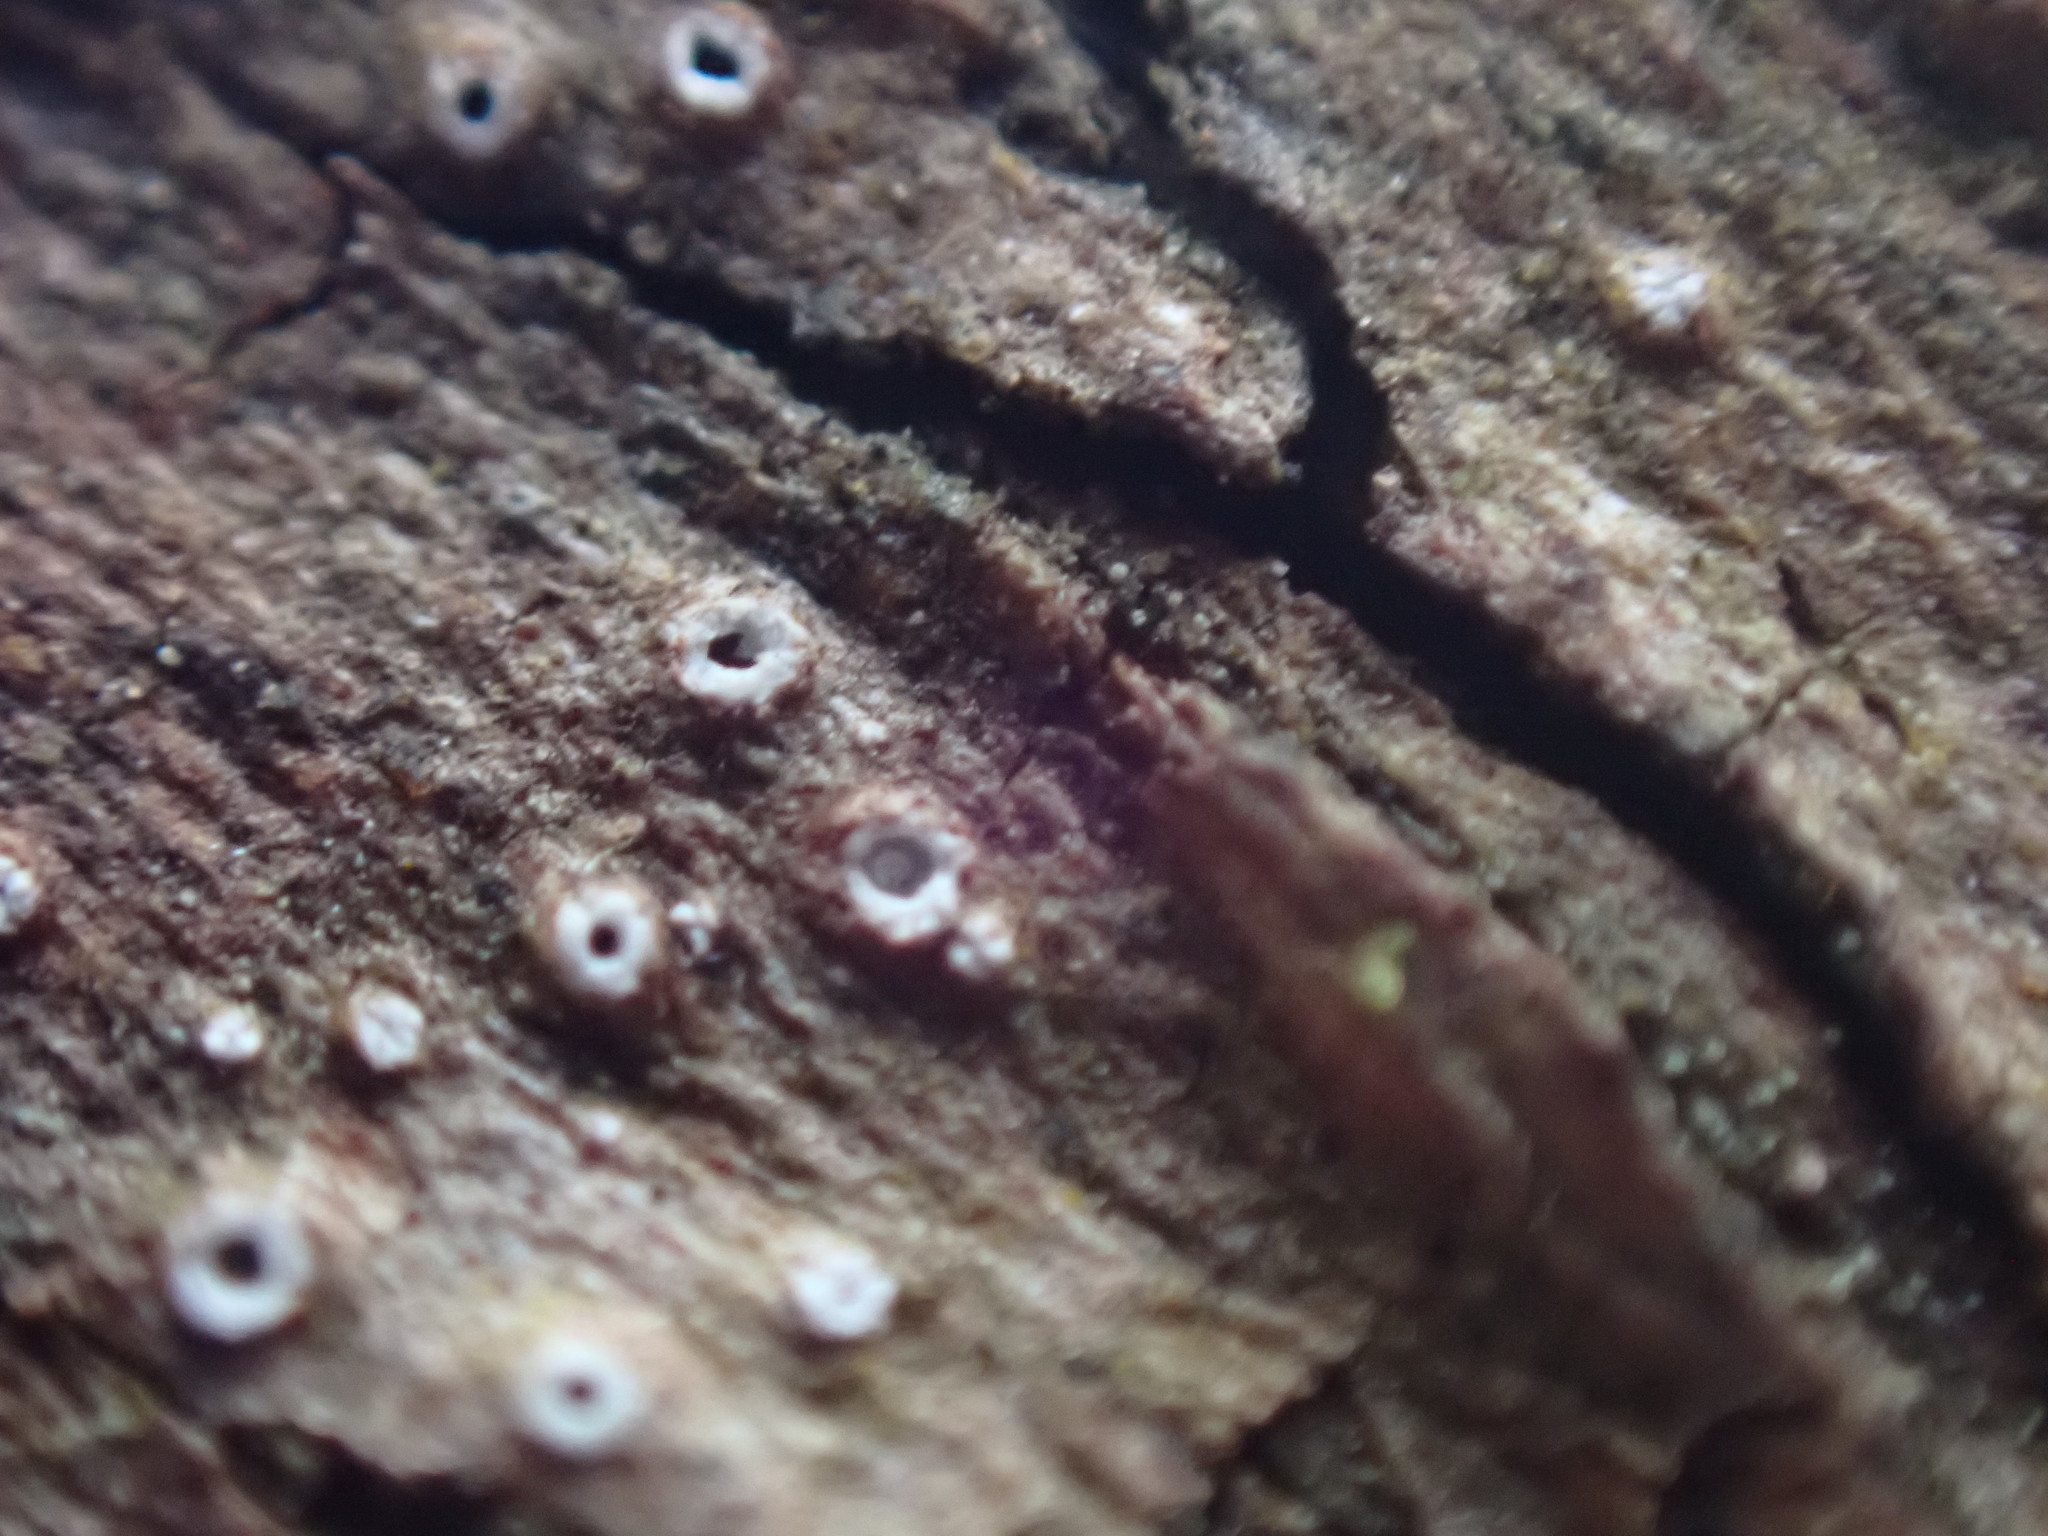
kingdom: Fungi
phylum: Ascomycota
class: Lecanoromycetes
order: Ostropales
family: Stictidaceae
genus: Stictis
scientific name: Stictis radiata
